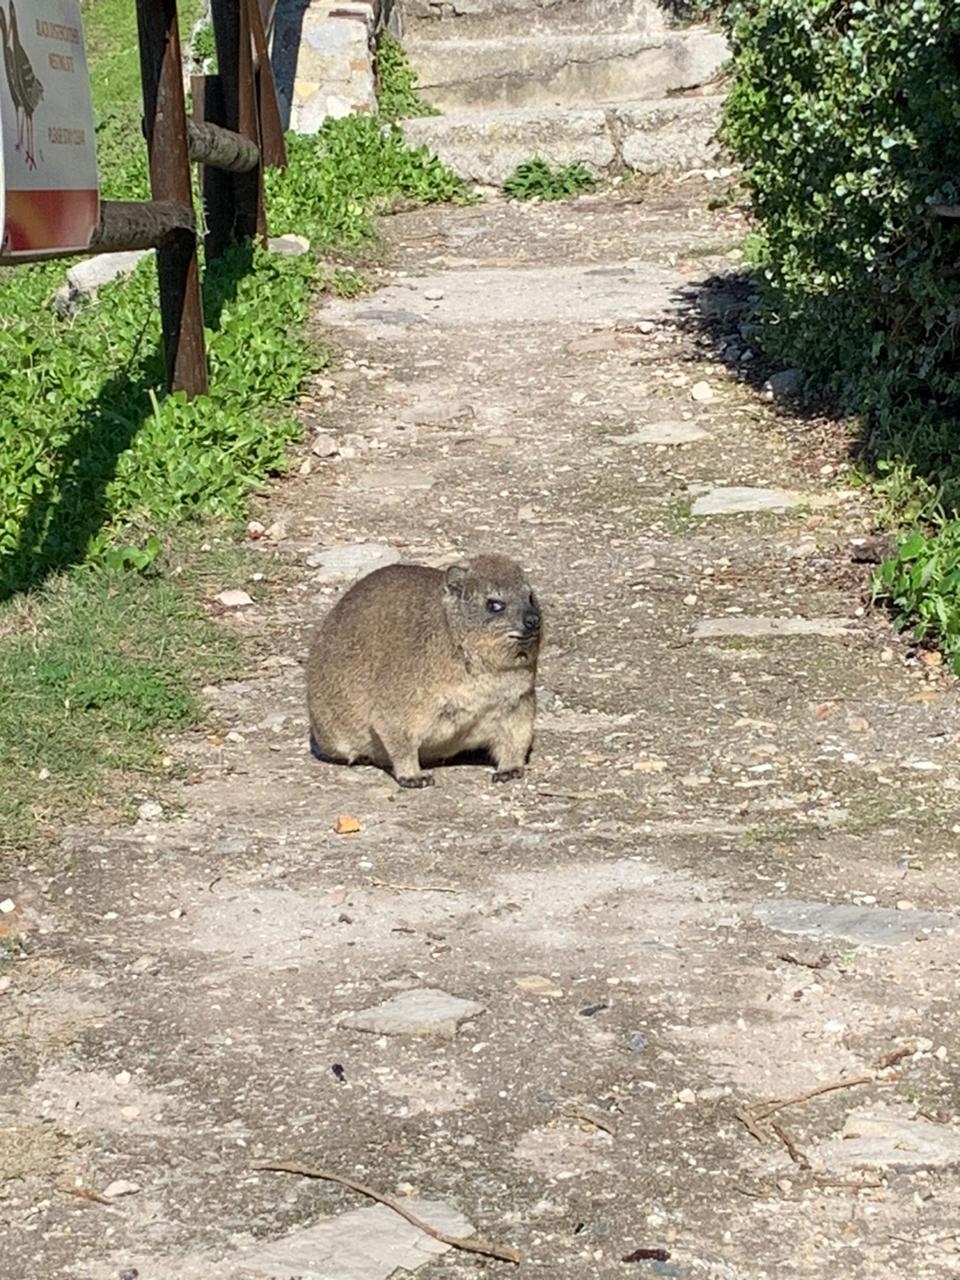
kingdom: Animalia
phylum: Chordata
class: Mammalia
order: Hyracoidea
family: Procaviidae
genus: Procavia
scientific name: Procavia capensis
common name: Rock hyrax
